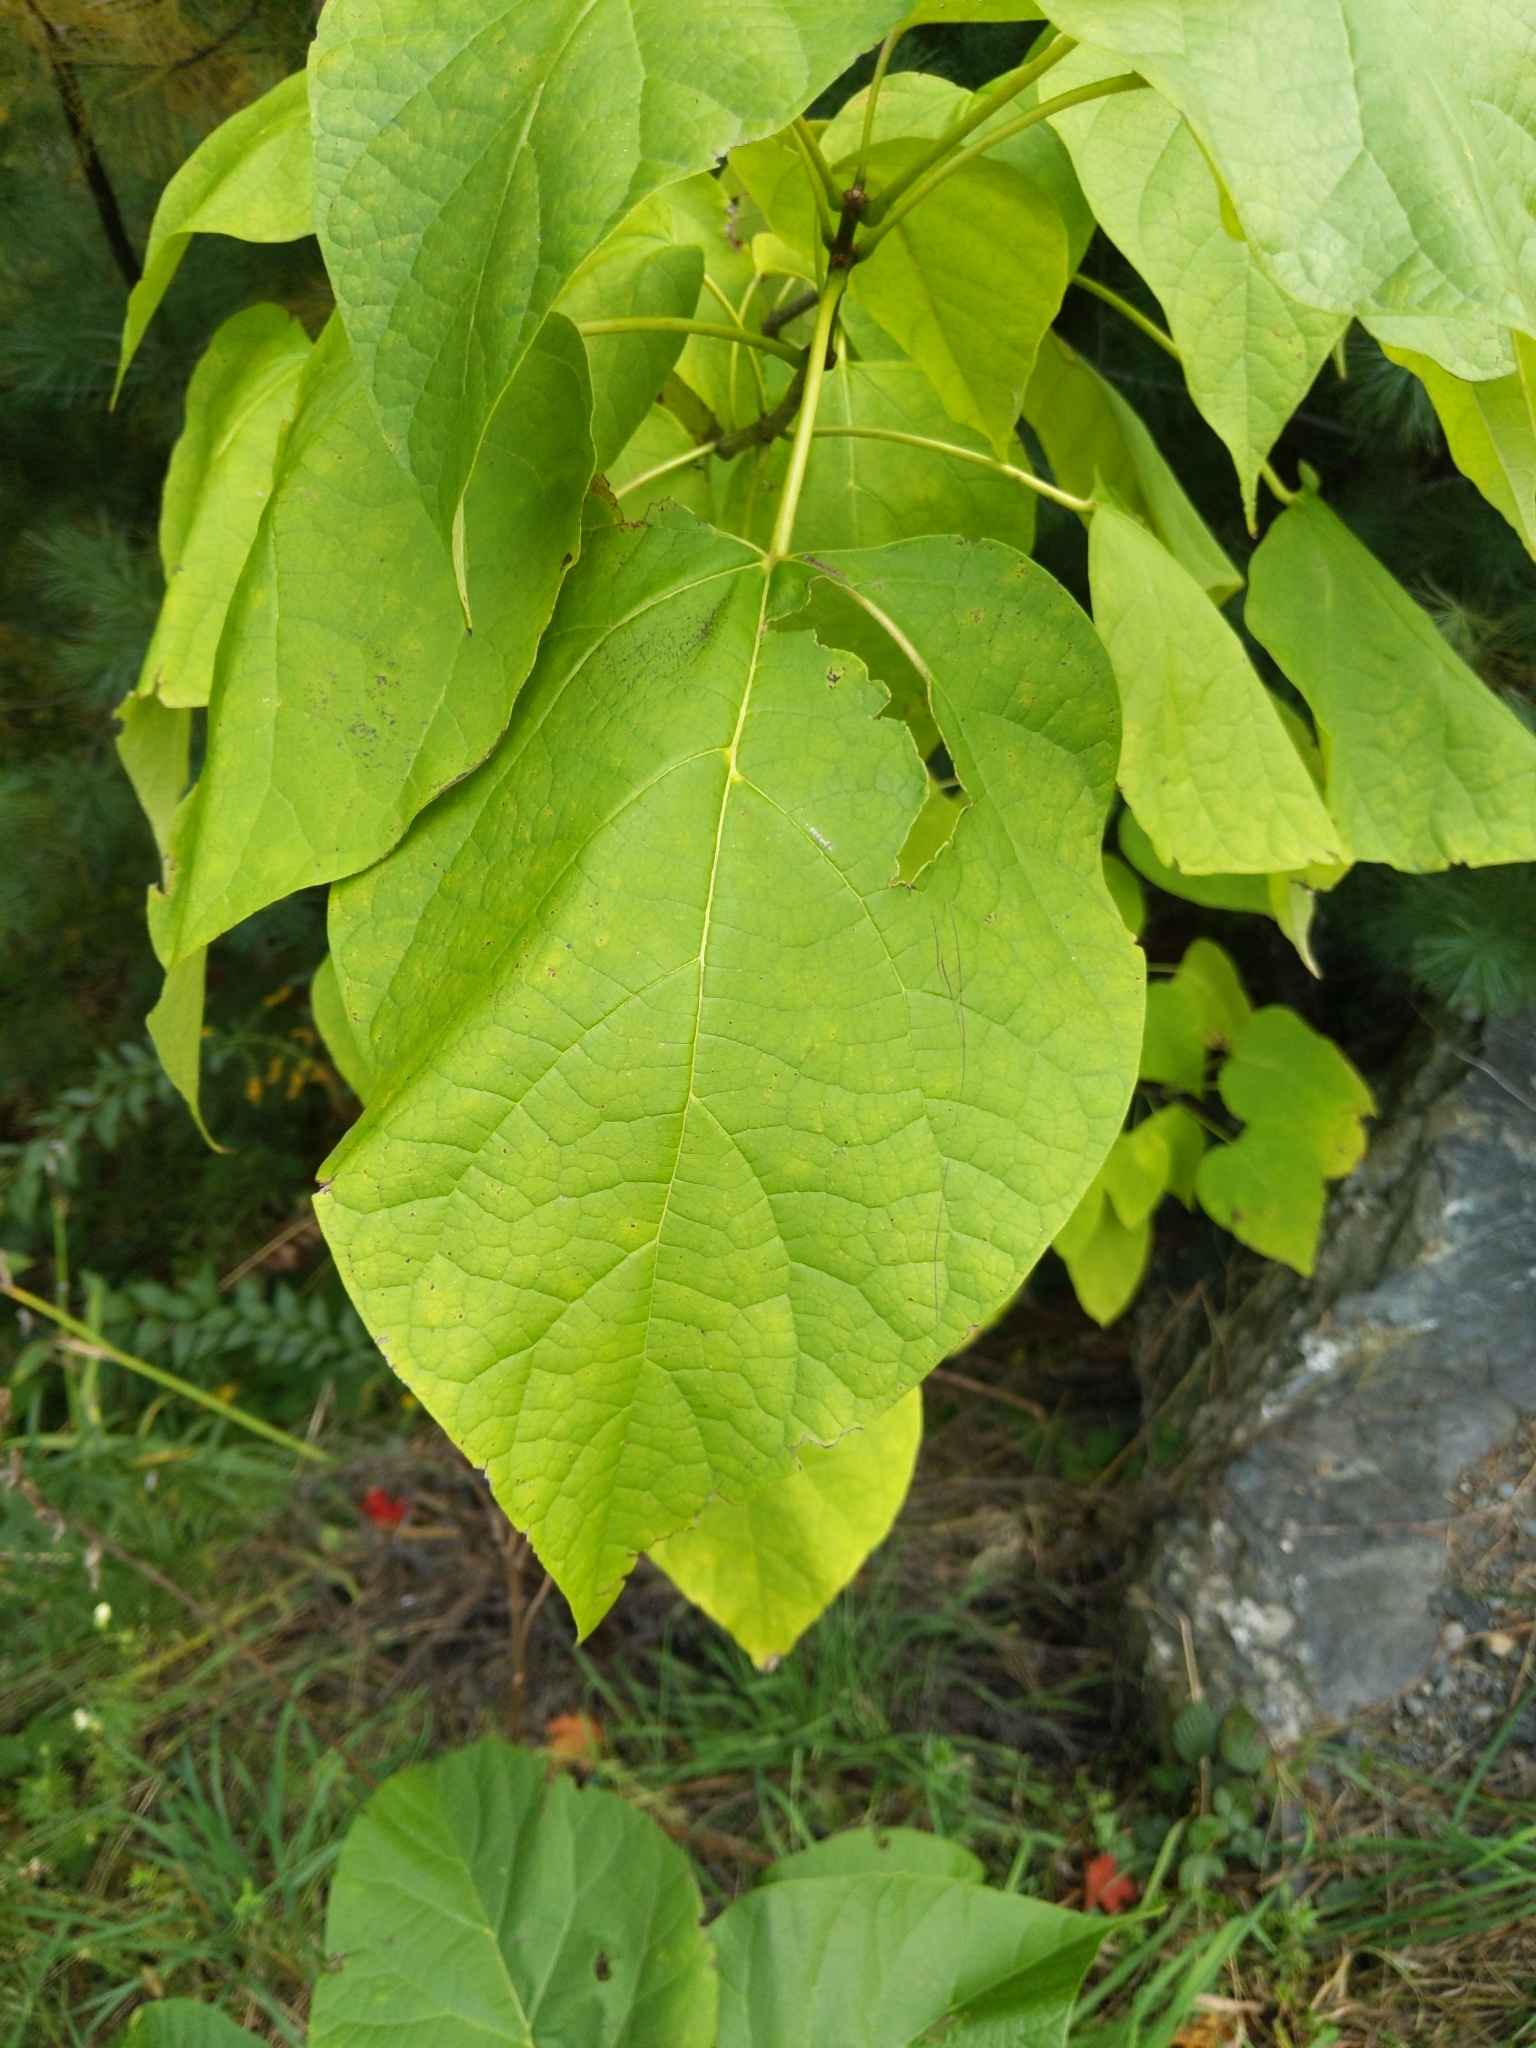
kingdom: Plantae
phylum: Tracheophyta
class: Magnoliopsida
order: Lamiales
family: Bignoniaceae
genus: Catalpa
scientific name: Catalpa speciosa
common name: Northern catalpa
